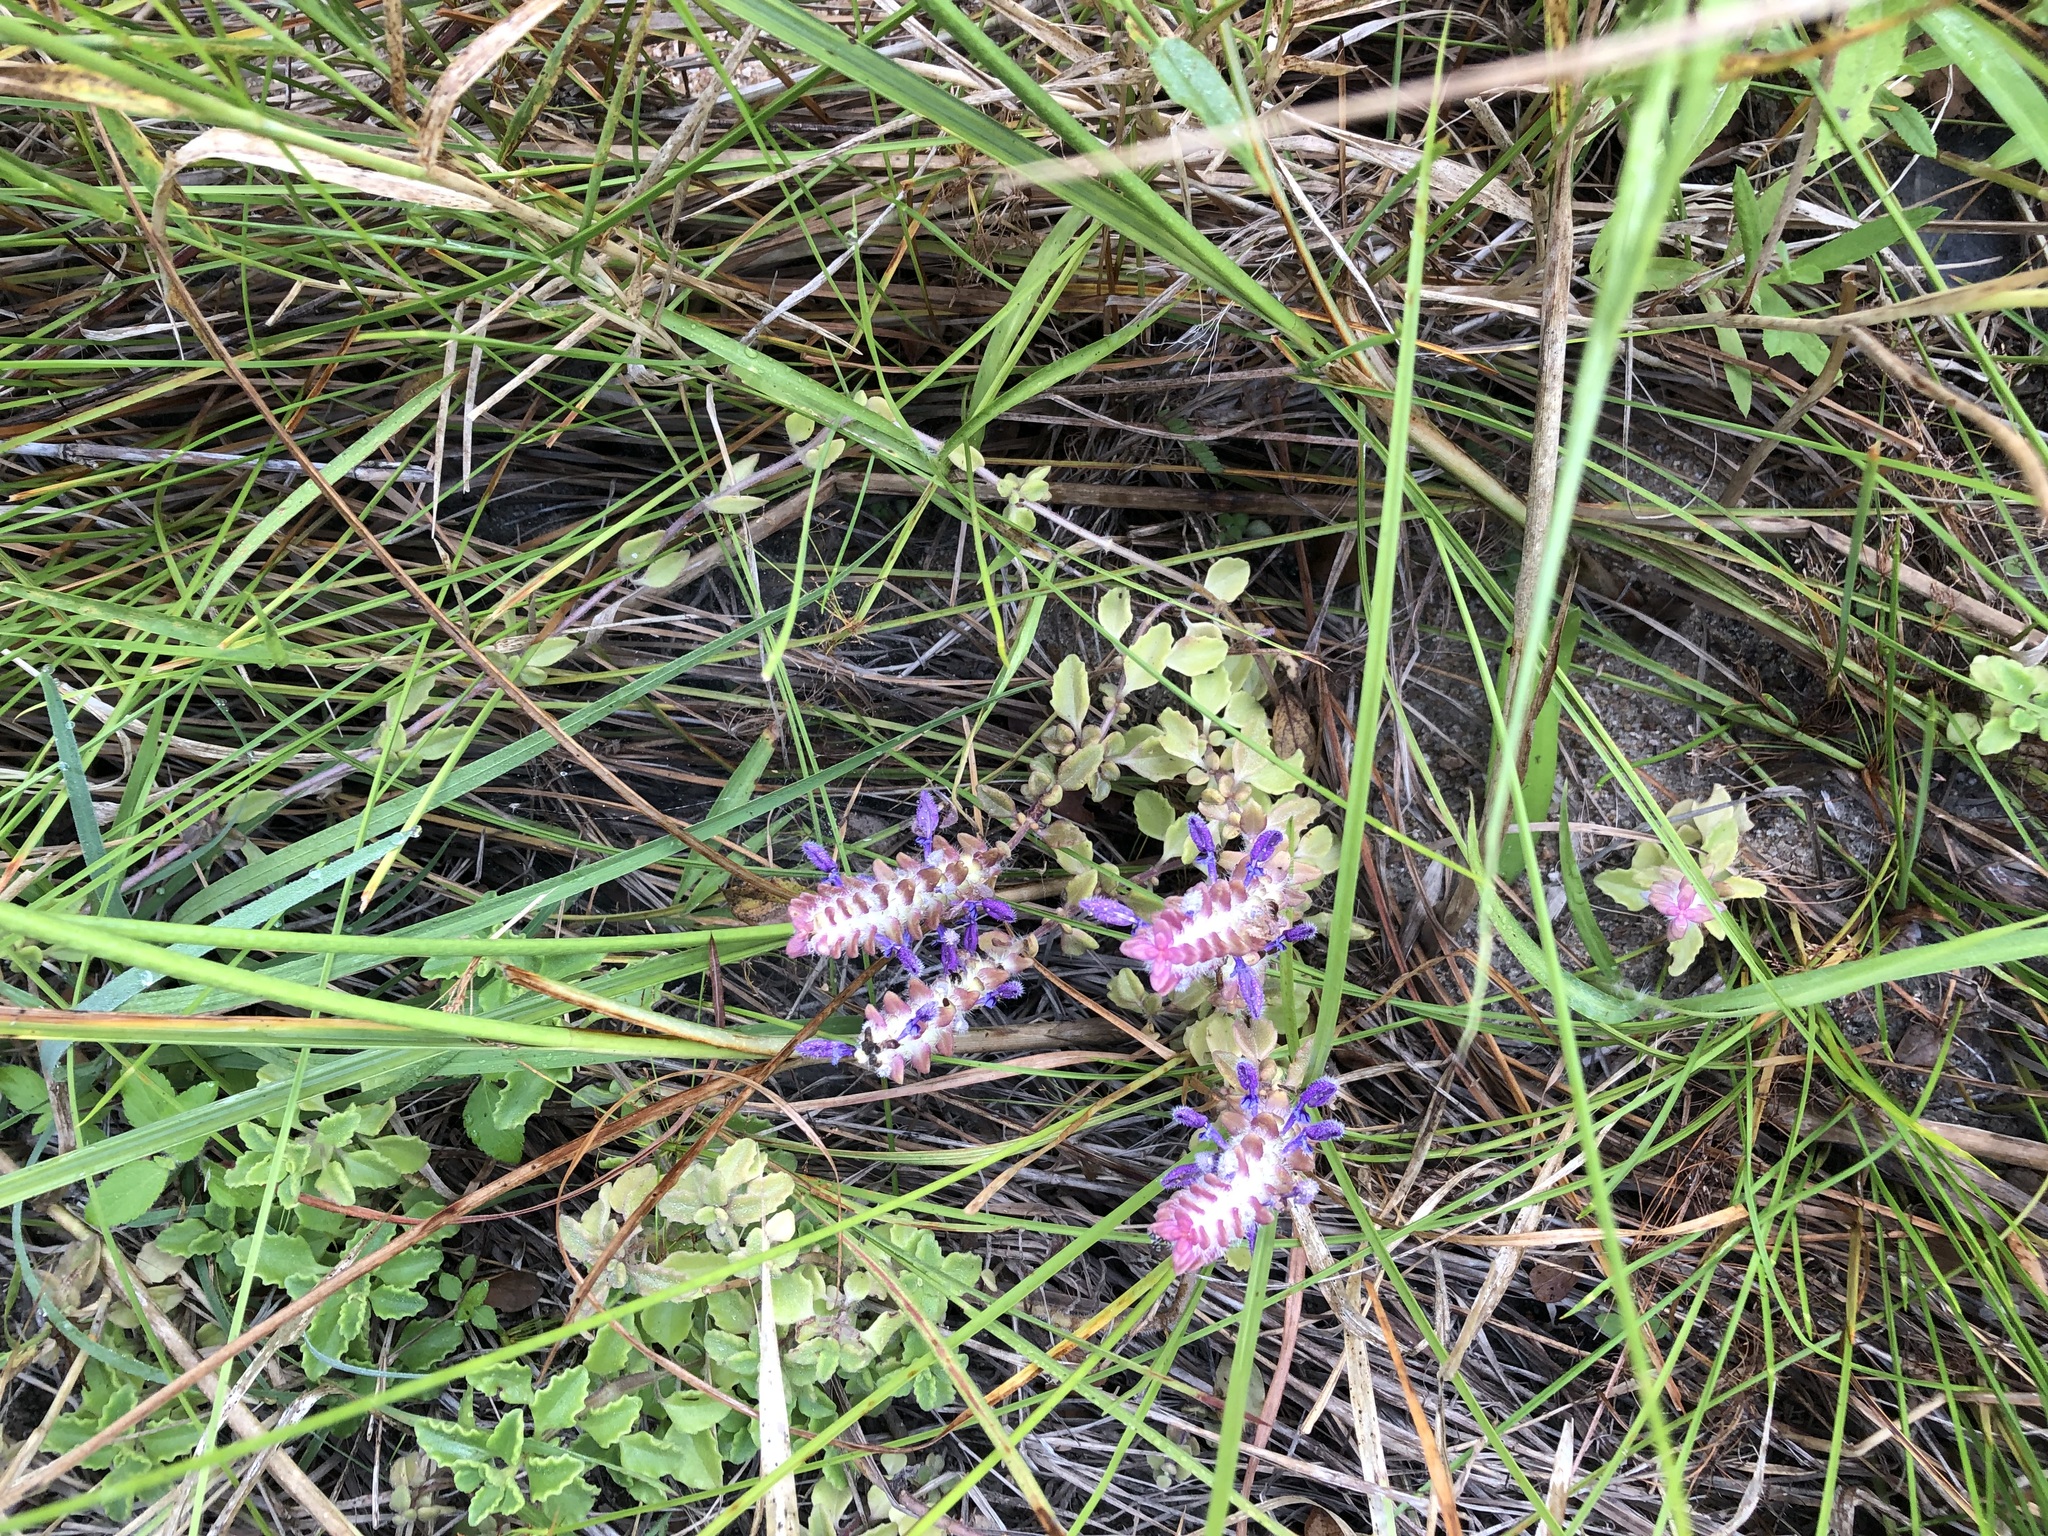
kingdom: Plantae
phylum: Tracheophyta
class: Magnoliopsida
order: Lamiales
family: Lamiaceae
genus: Coleus
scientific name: Coleus neochilus
